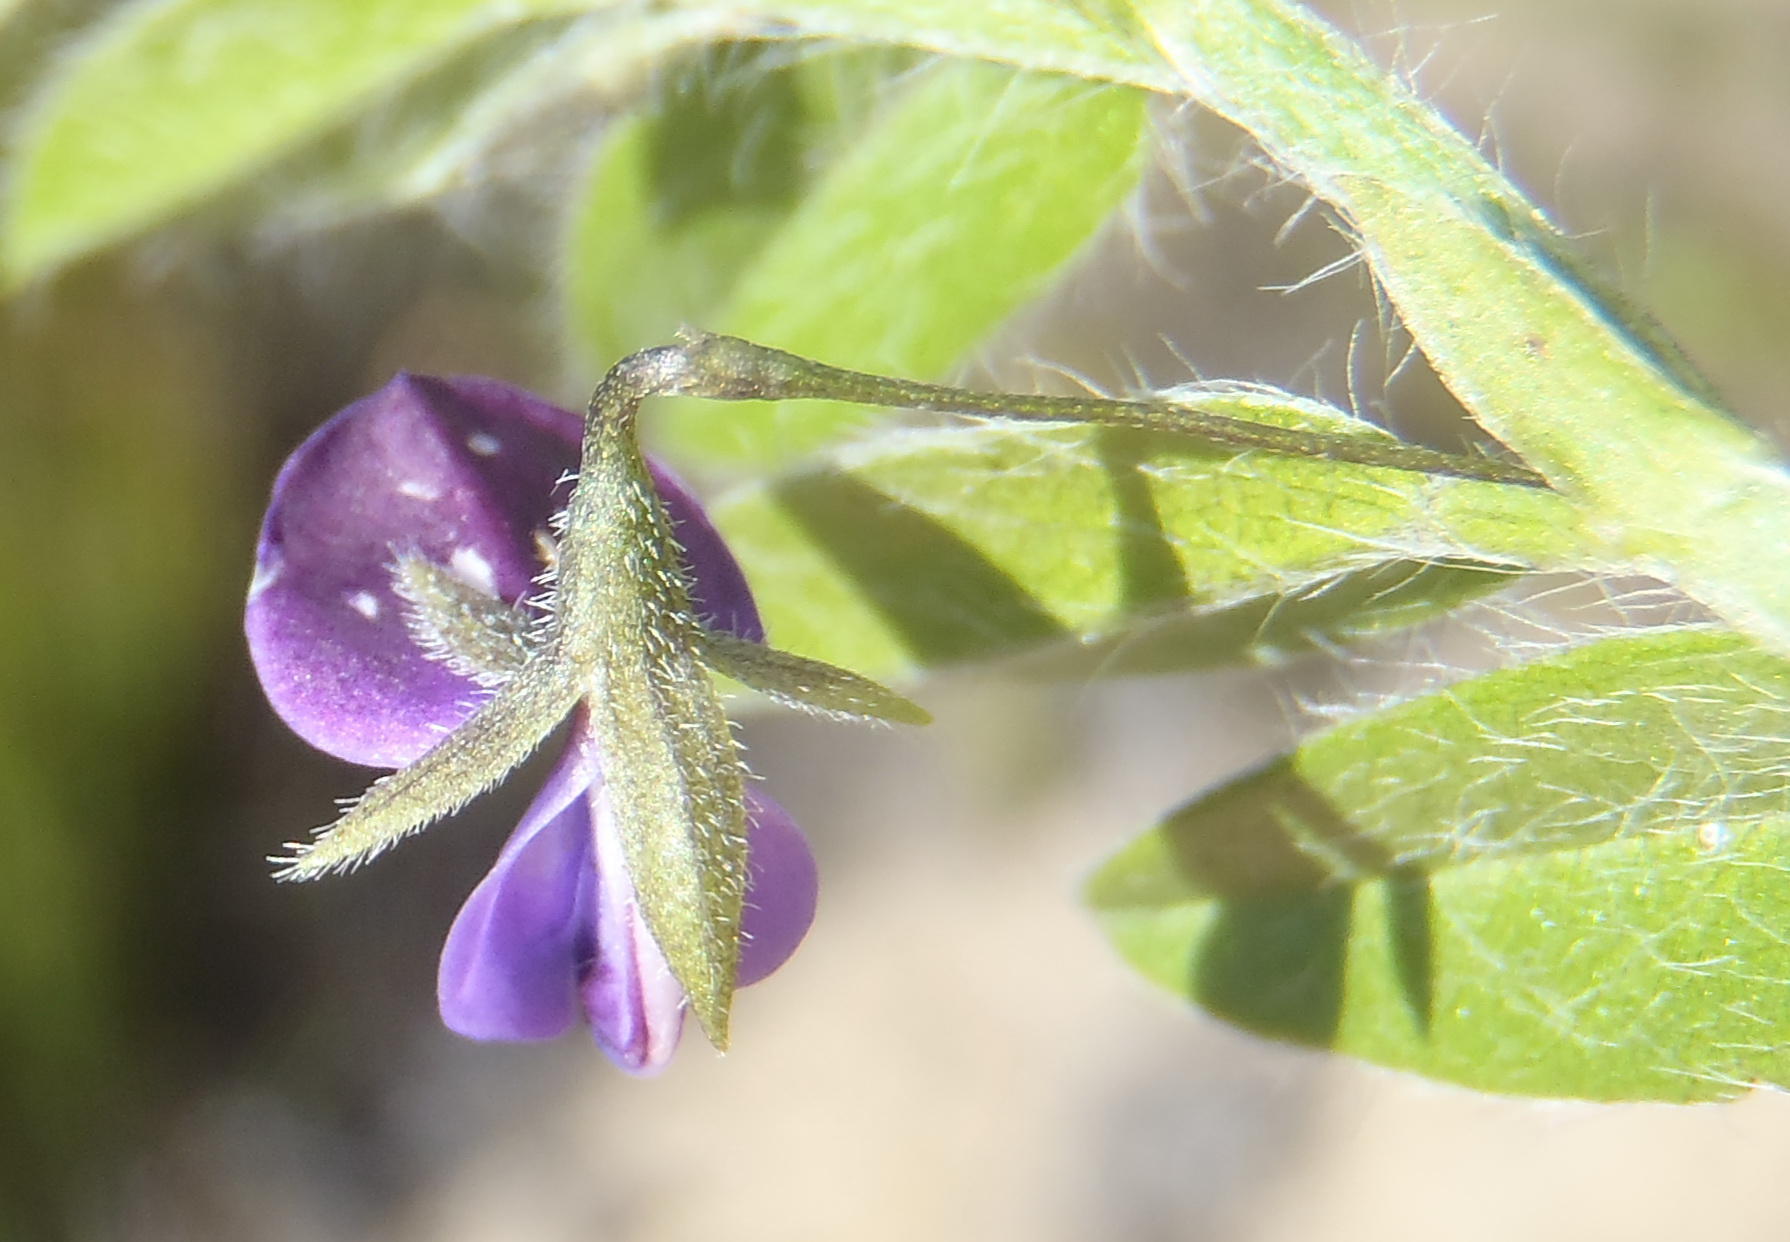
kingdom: Plantae
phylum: Tracheophyta
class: Magnoliopsida
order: Fabales
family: Fabaceae
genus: Psoralea
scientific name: Psoralea plauta
